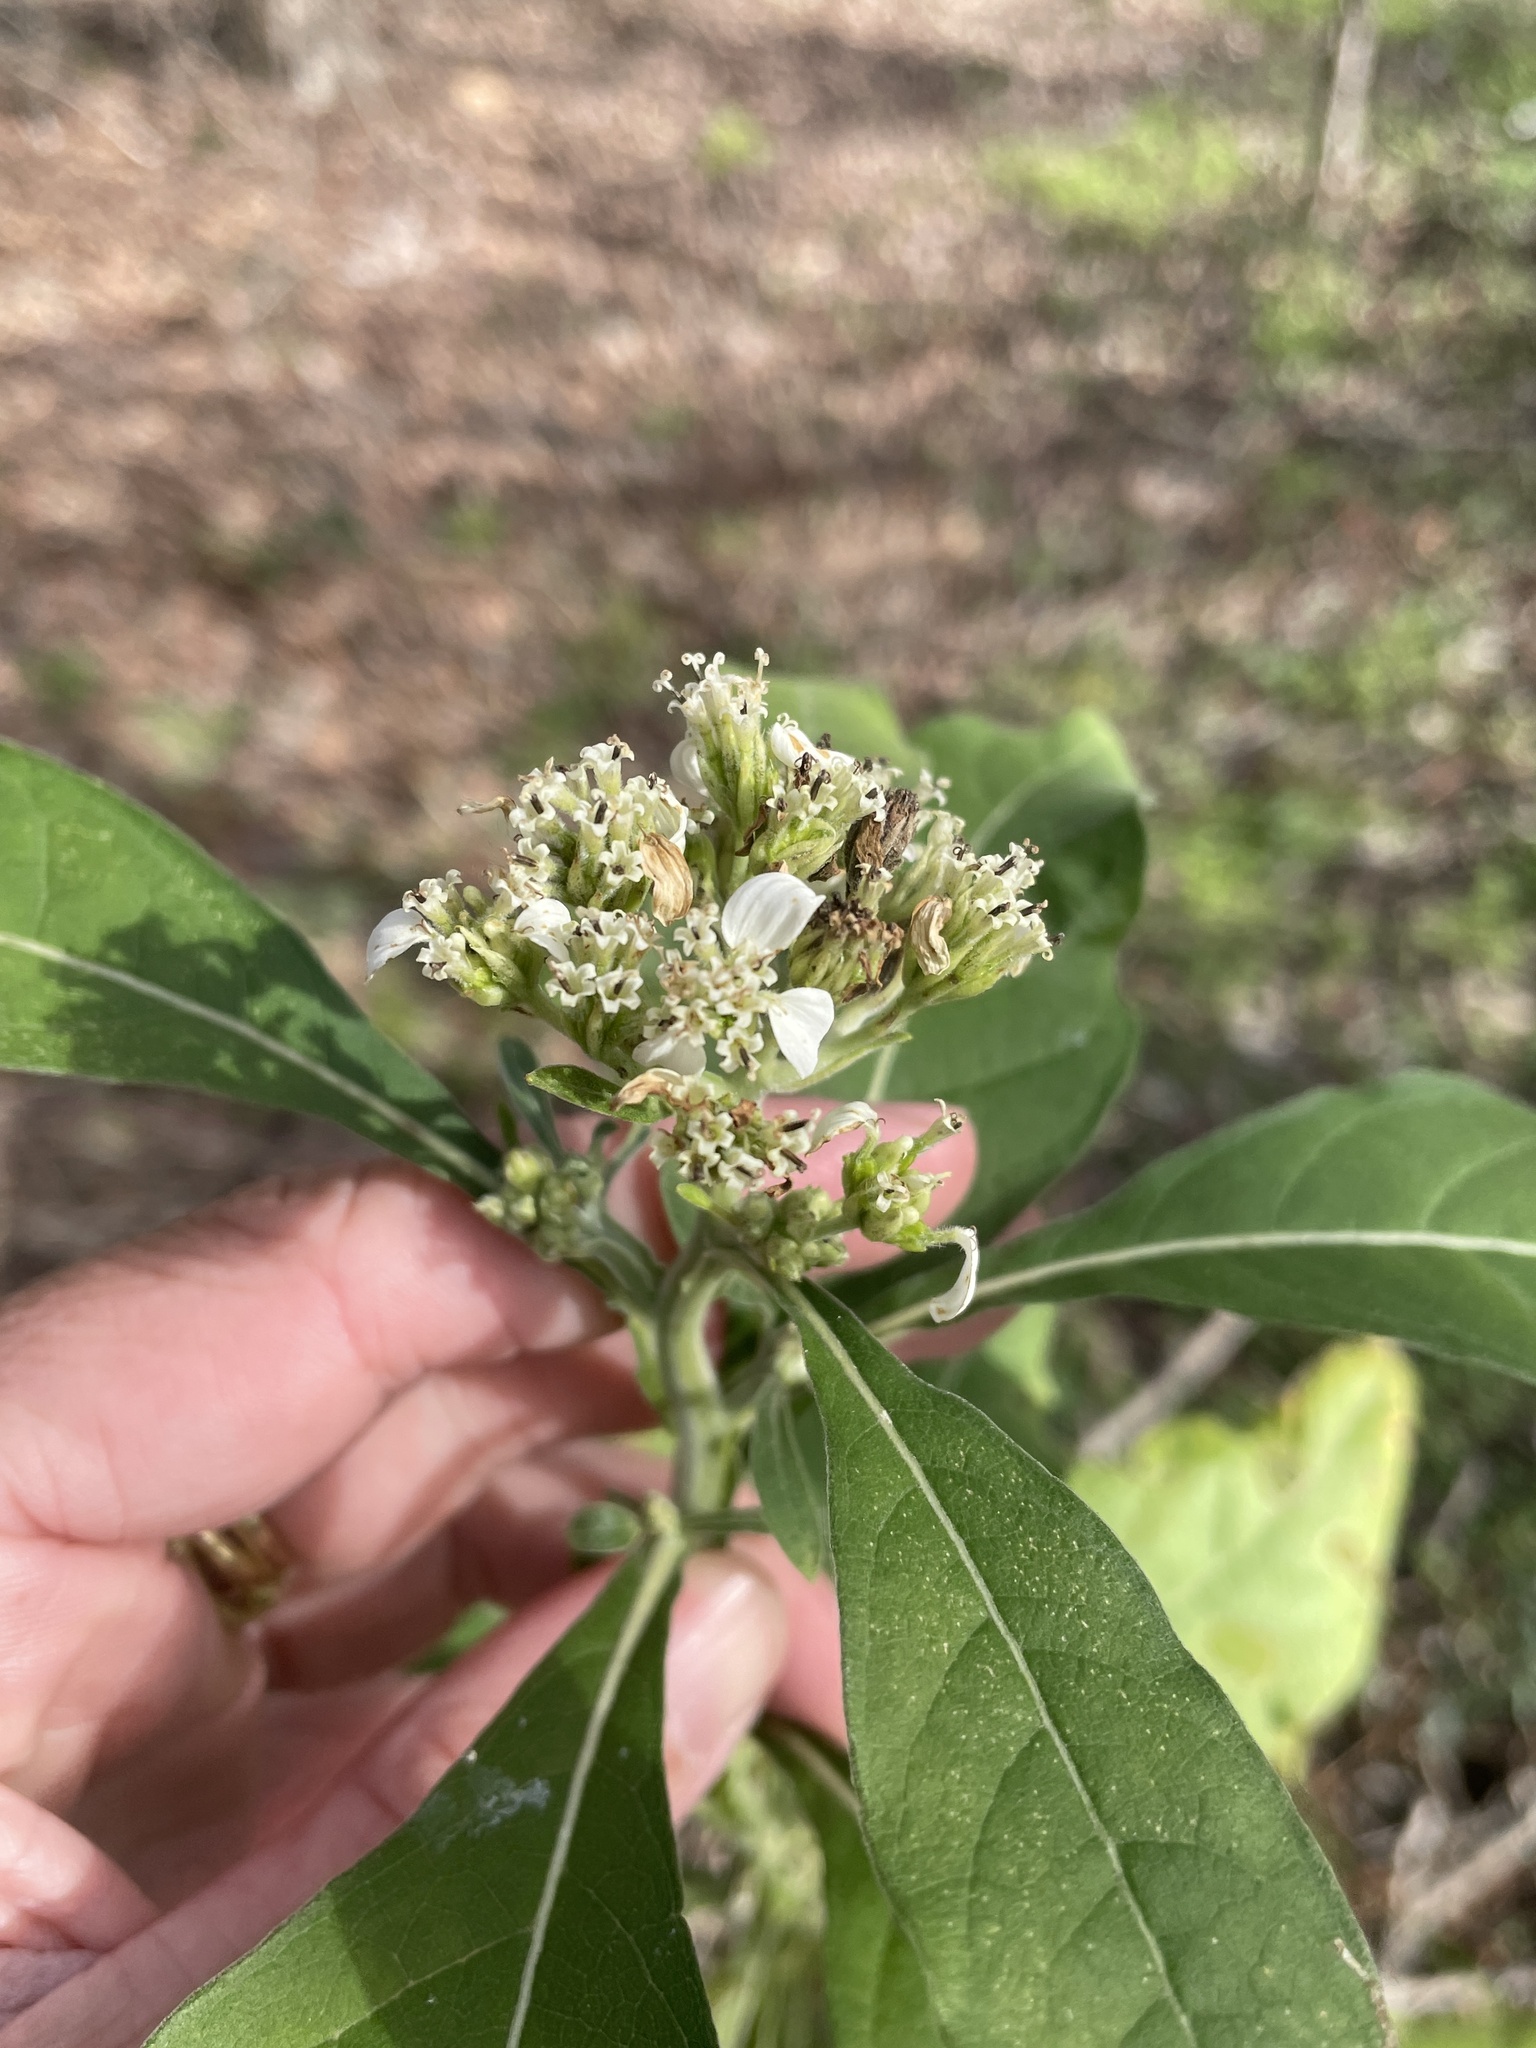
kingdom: Plantae
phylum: Tracheophyta
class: Magnoliopsida
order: Asterales
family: Asteraceae
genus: Verbesina
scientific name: Verbesina virginica
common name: Frostweed
